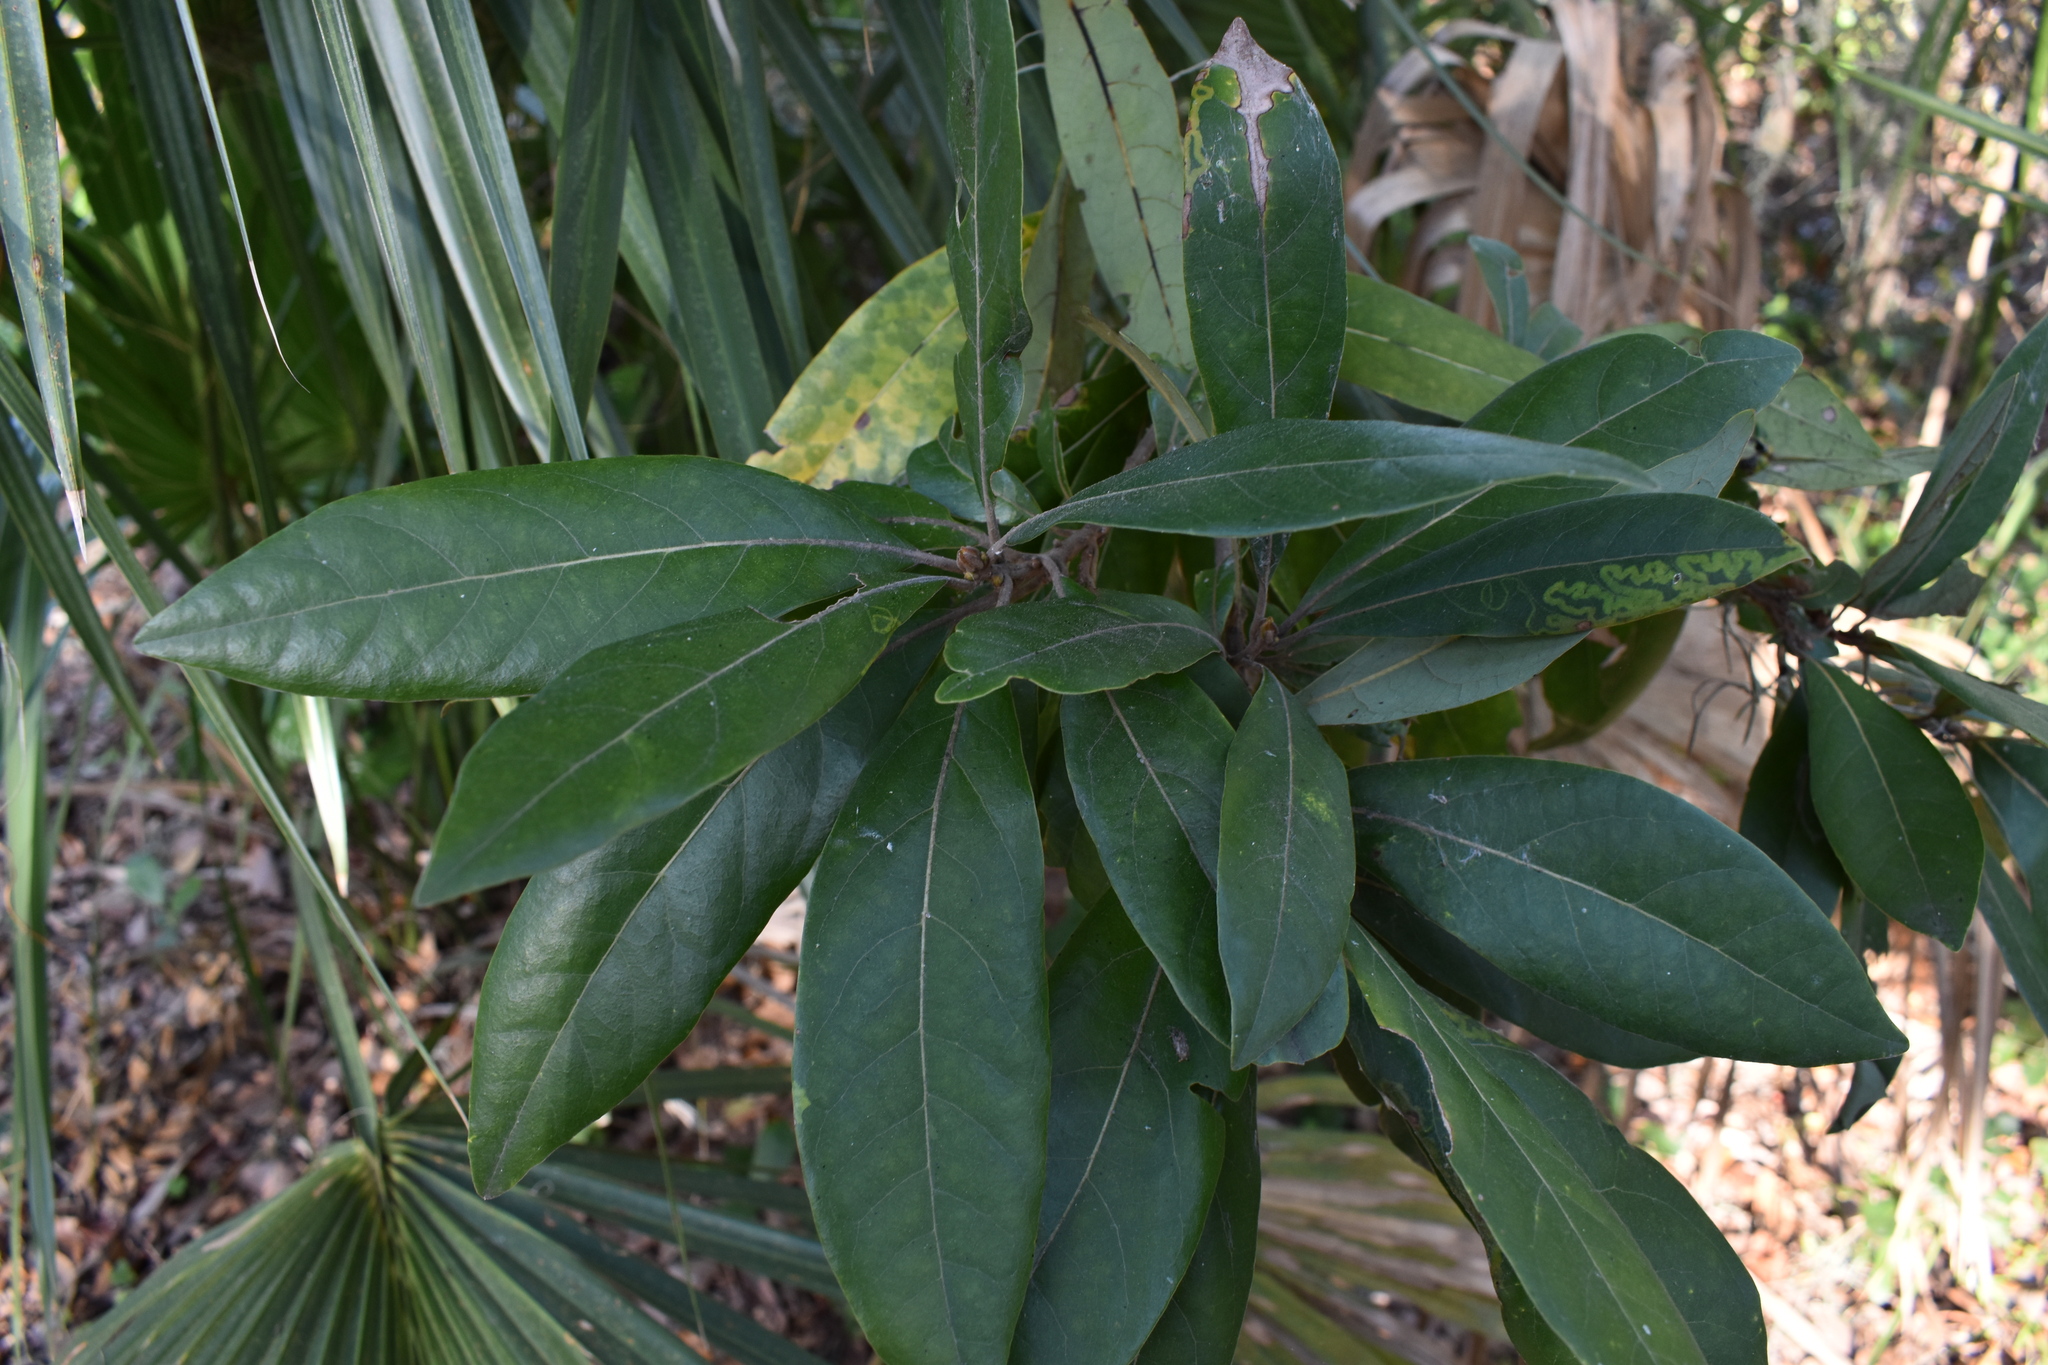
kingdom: Plantae
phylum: Tracheophyta
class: Magnoliopsida
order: Laurales
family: Lauraceae
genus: Persea
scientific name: Persea palustris
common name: Swampbay
